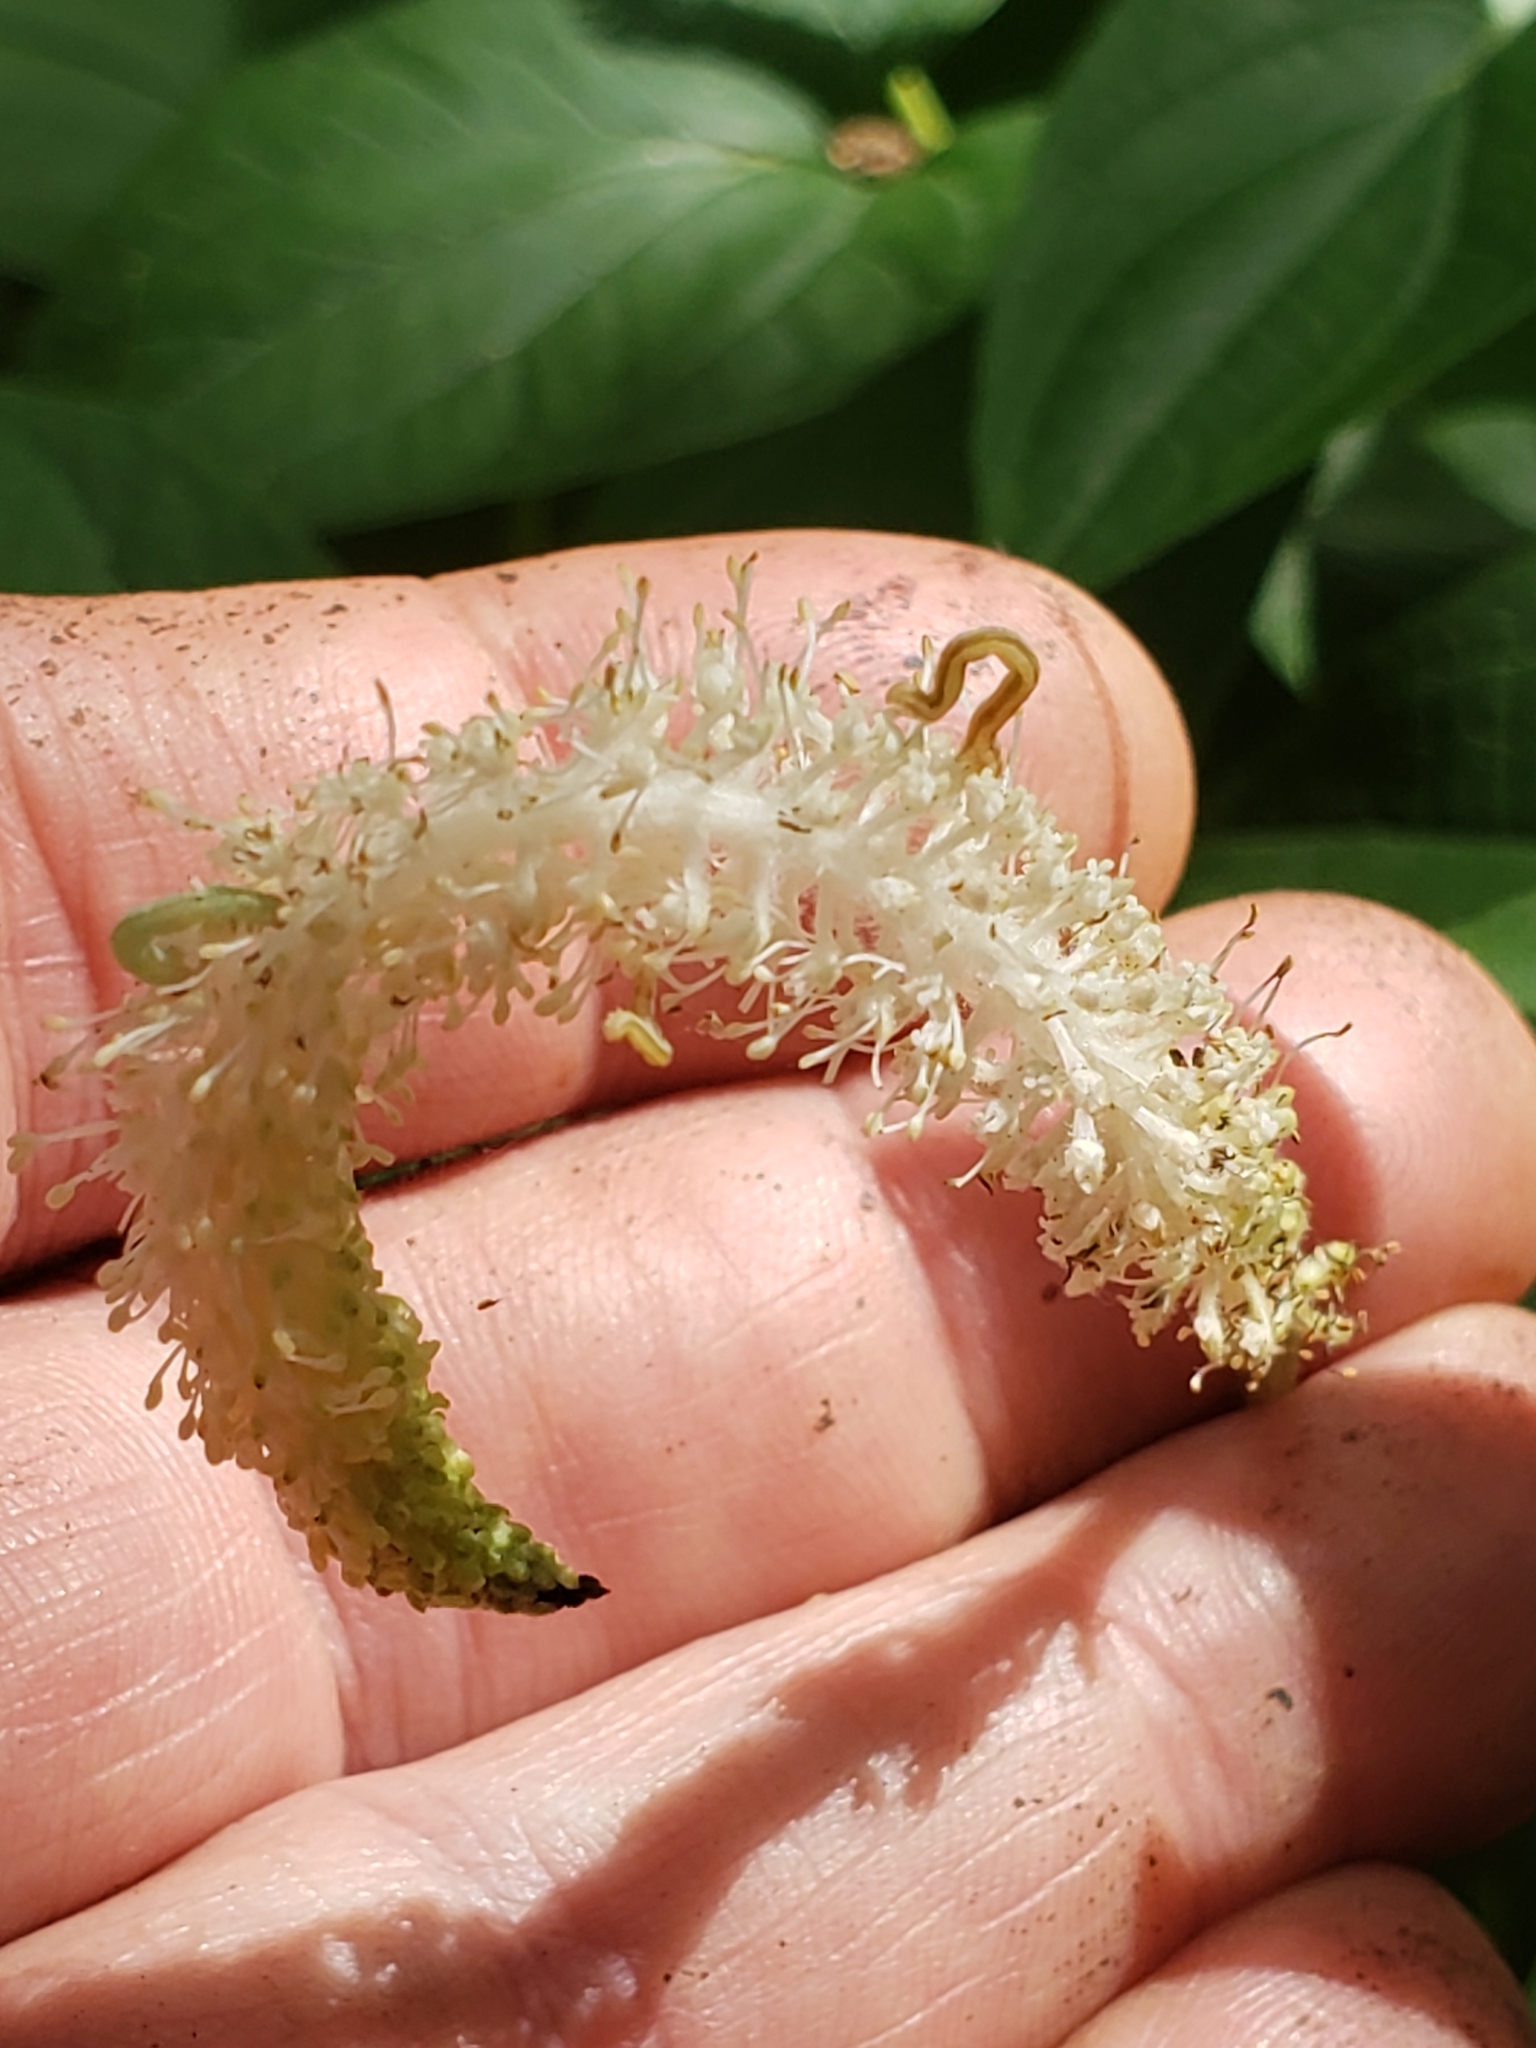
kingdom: Plantae
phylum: Tracheophyta
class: Magnoliopsida
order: Piperales
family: Saururaceae
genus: Saururus
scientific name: Saururus cernuus
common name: Lizard's-tail
